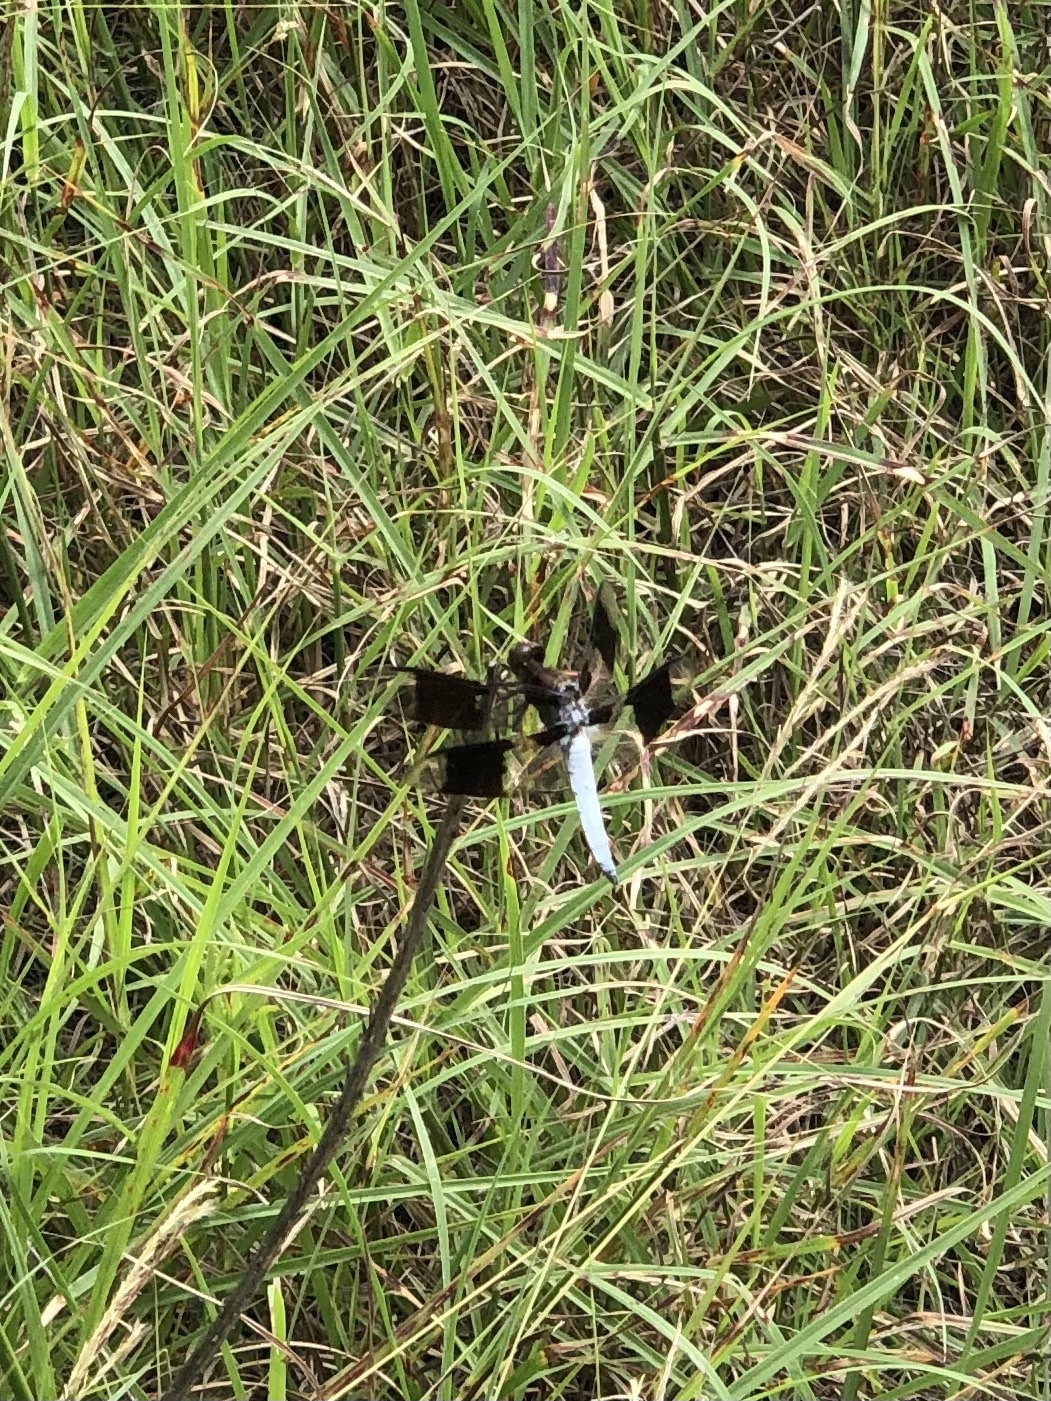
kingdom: Animalia
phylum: Arthropoda
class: Insecta
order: Odonata
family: Libellulidae
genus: Plathemis
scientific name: Plathemis lydia
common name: Common whitetail
